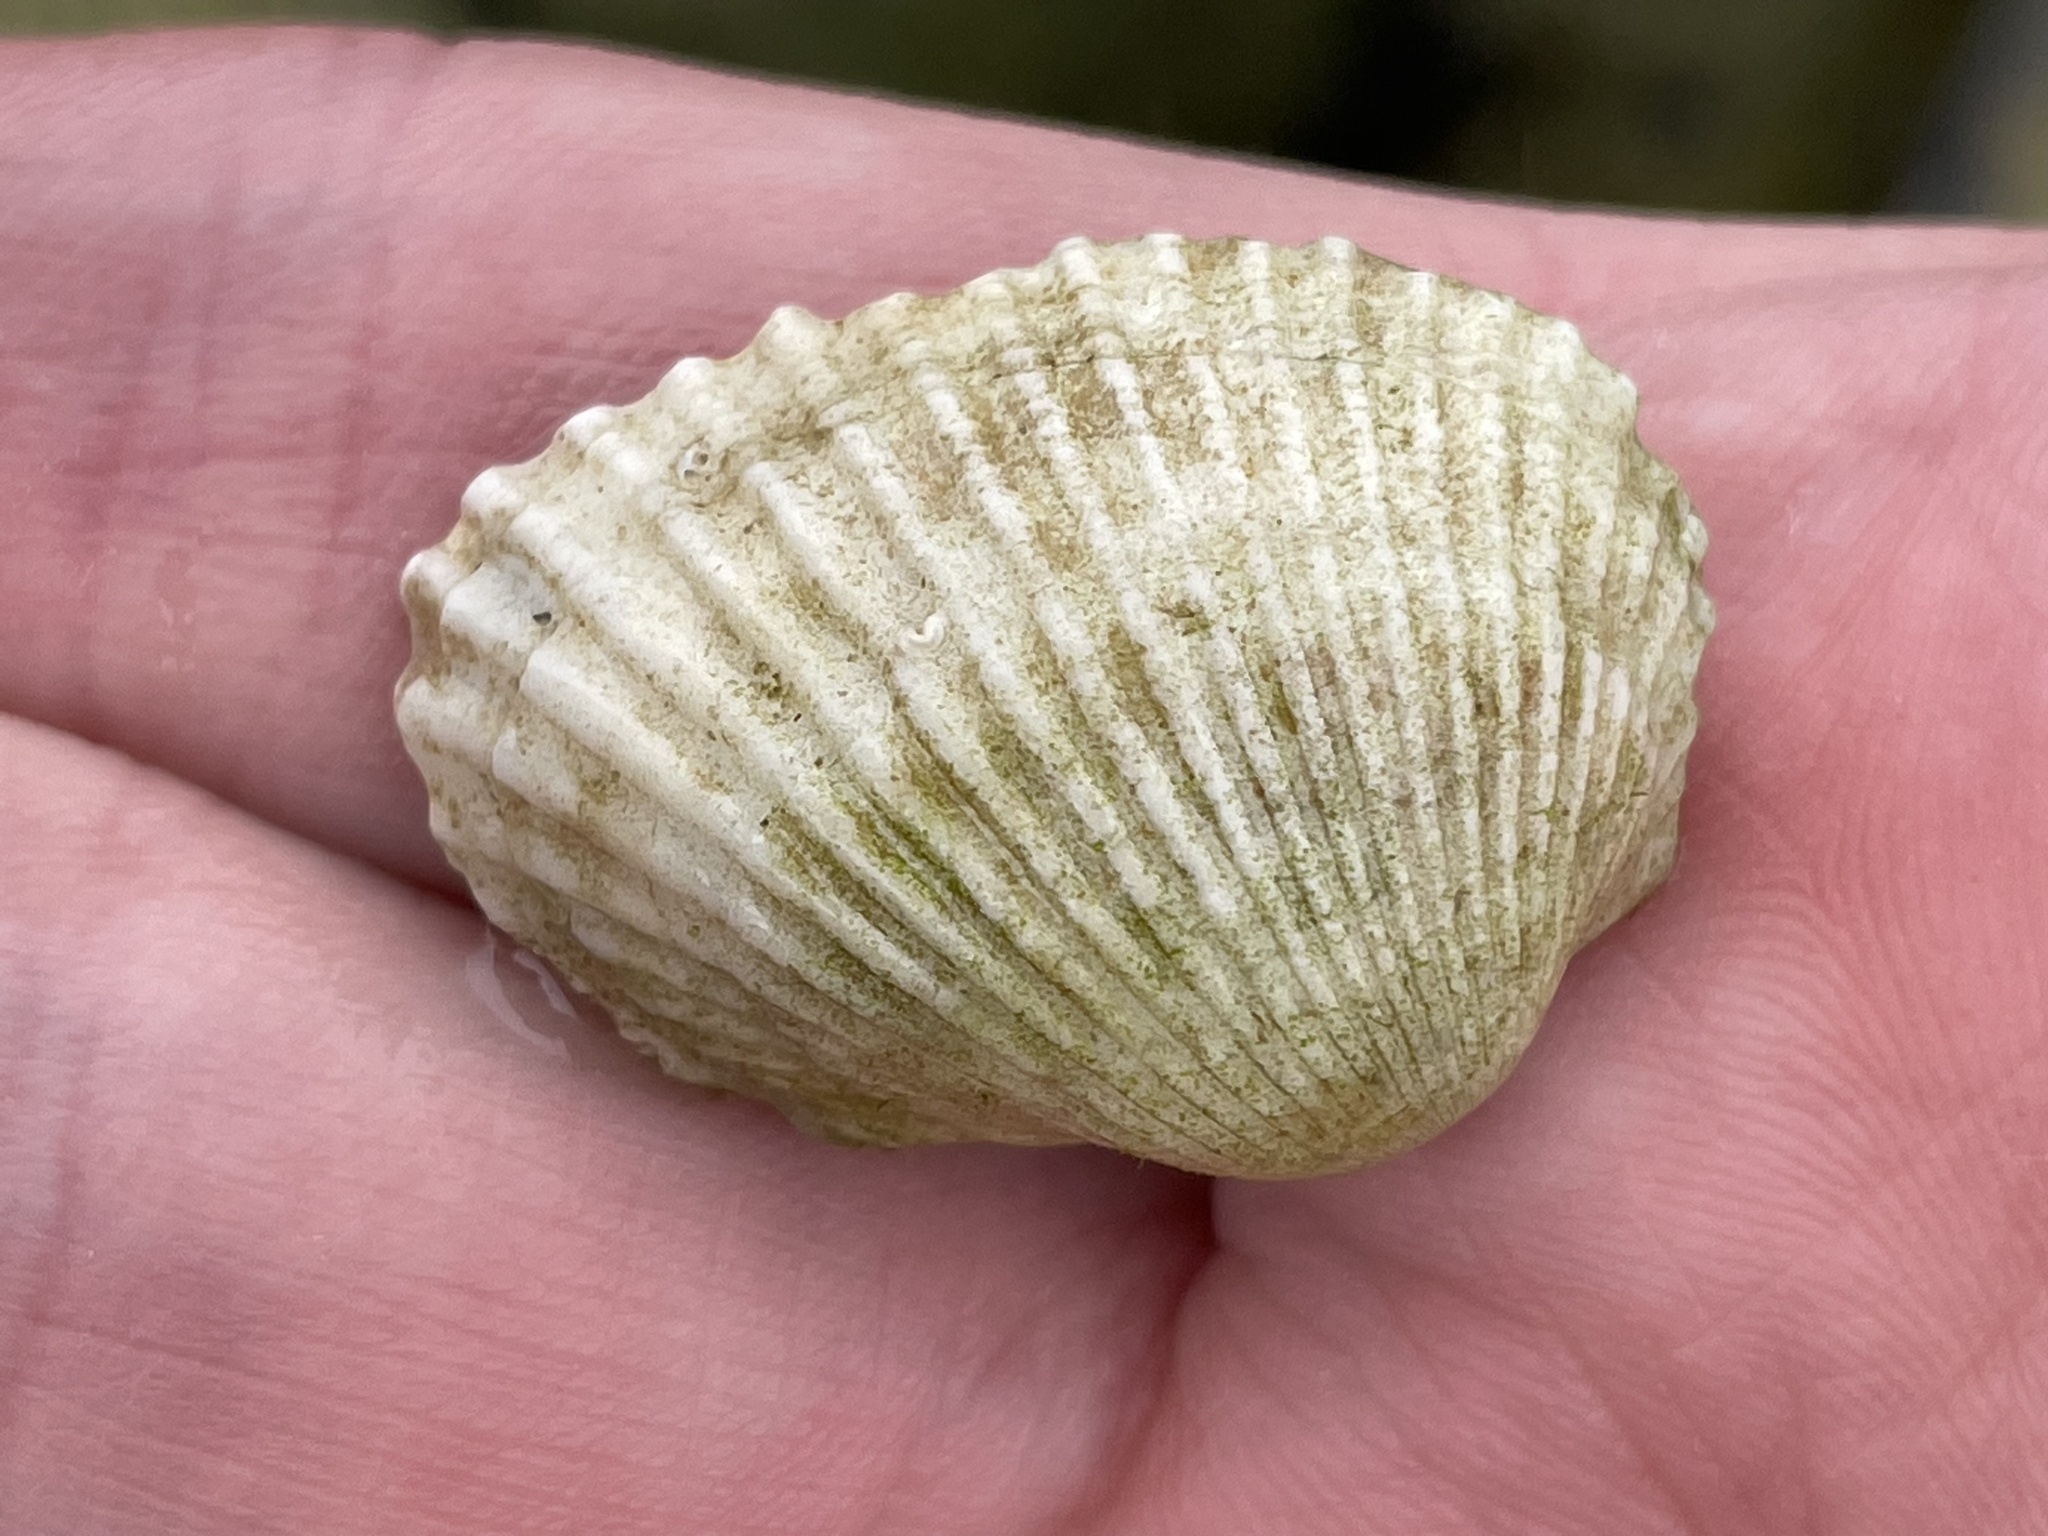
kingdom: Animalia
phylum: Mollusca
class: Bivalvia
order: Arcida
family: Arcidae
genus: Anadara
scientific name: Anadara transversa
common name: Transverse ark
